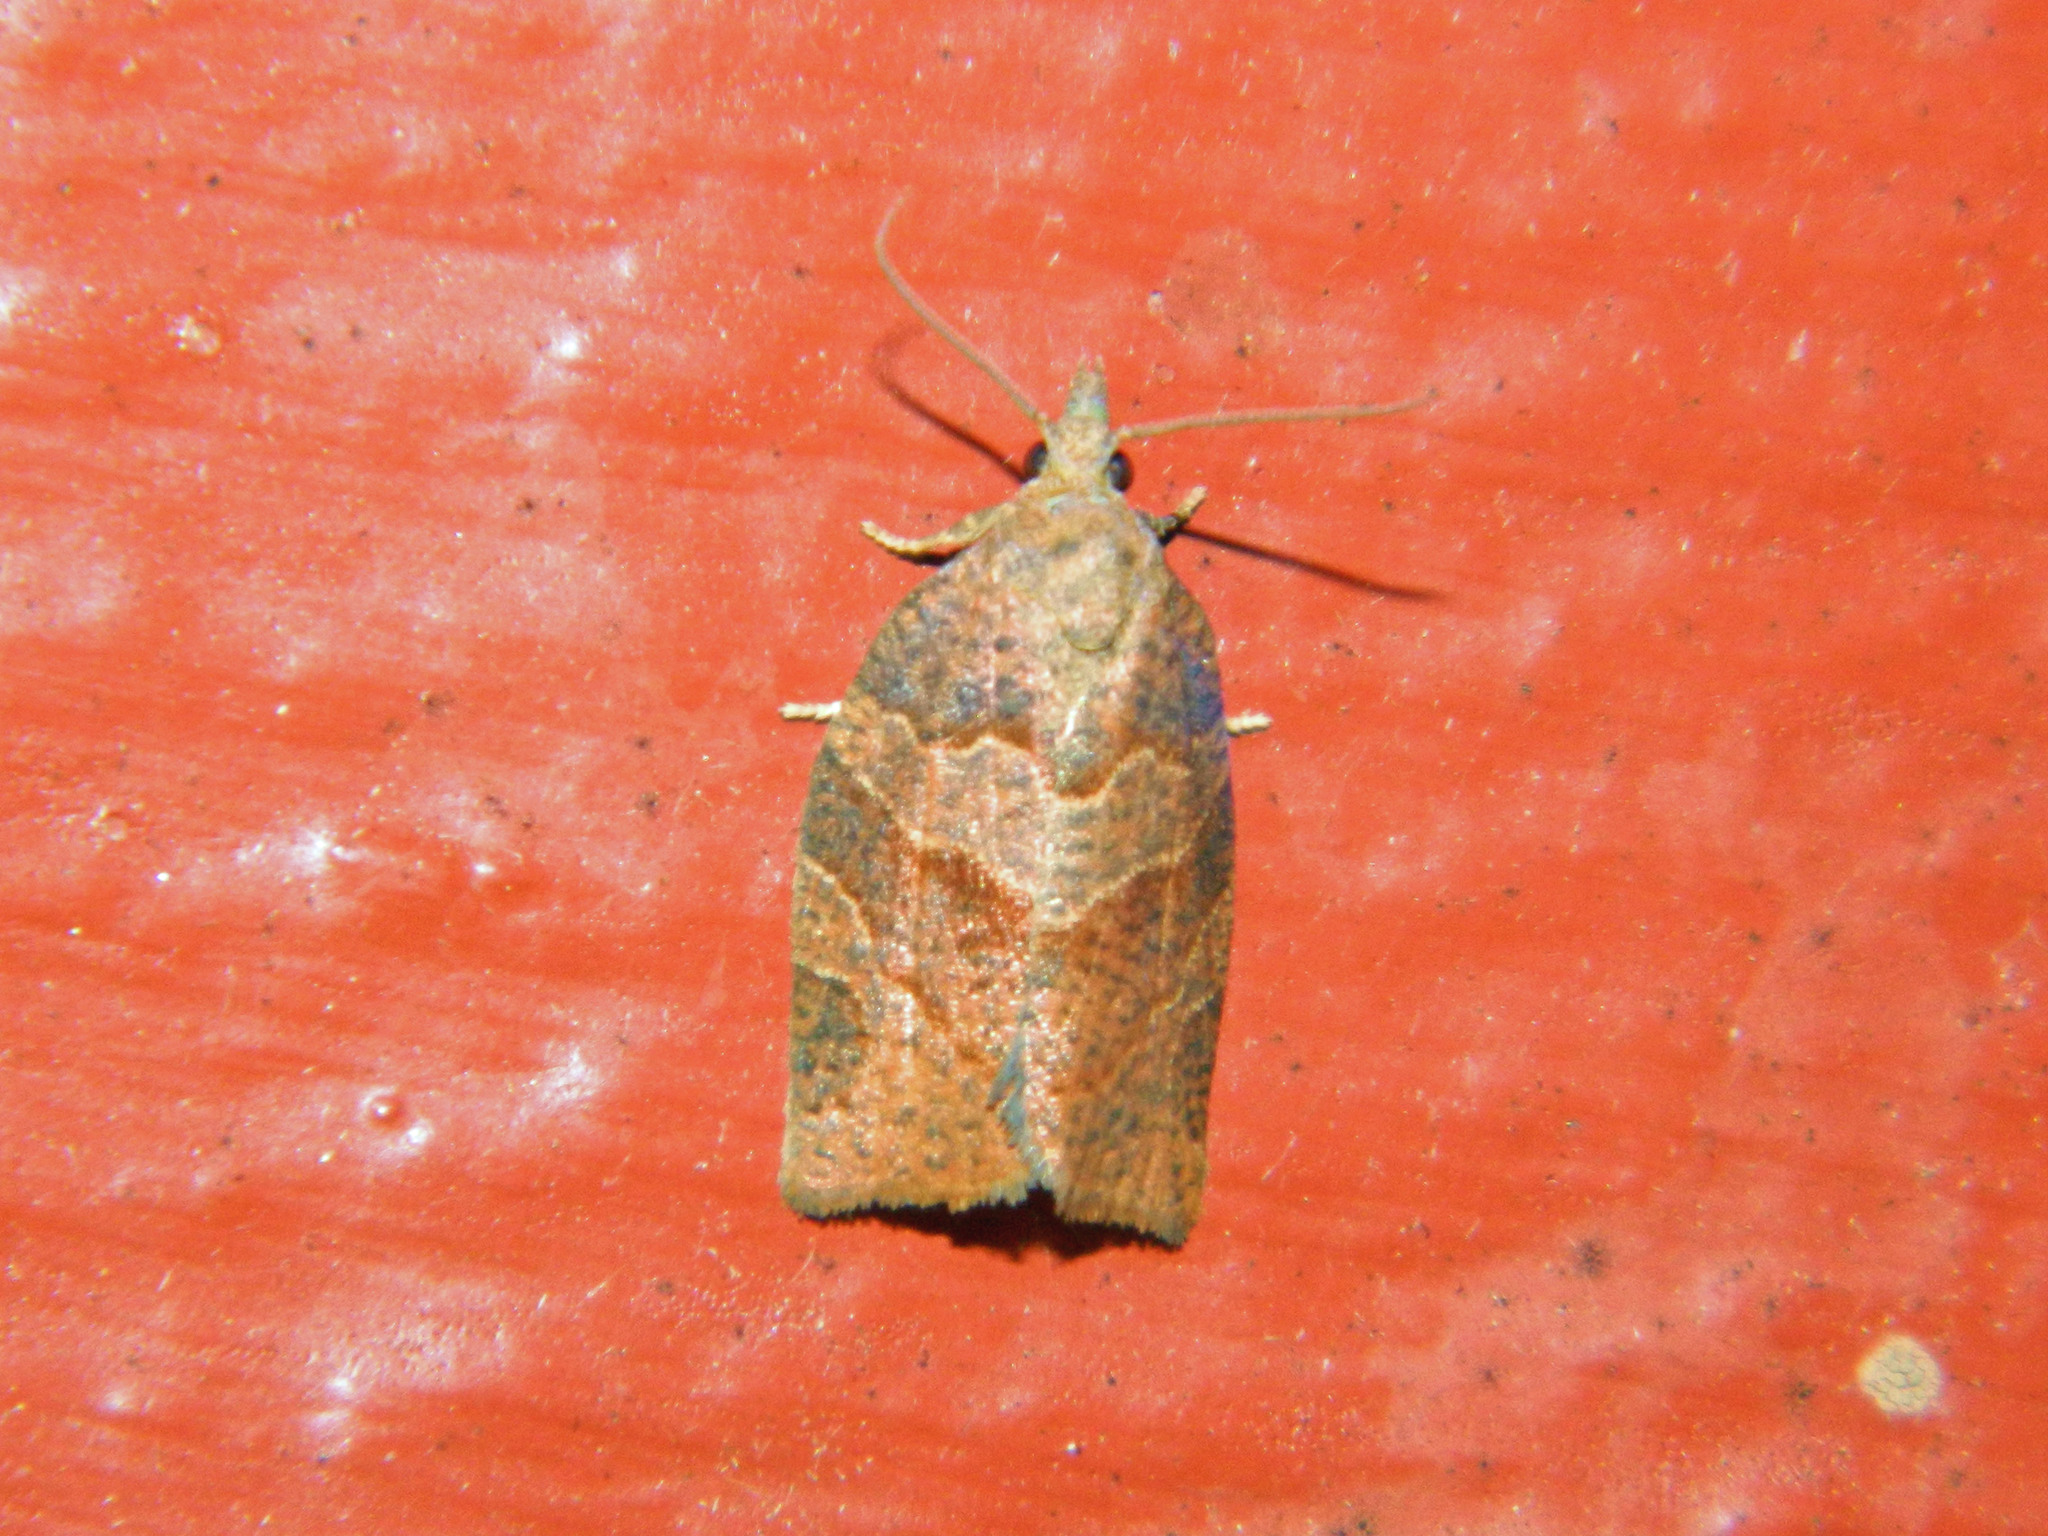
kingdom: Animalia
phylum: Arthropoda
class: Insecta
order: Lepidoptera
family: Tortricidae
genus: Pandemis
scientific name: Pandemis canadana
